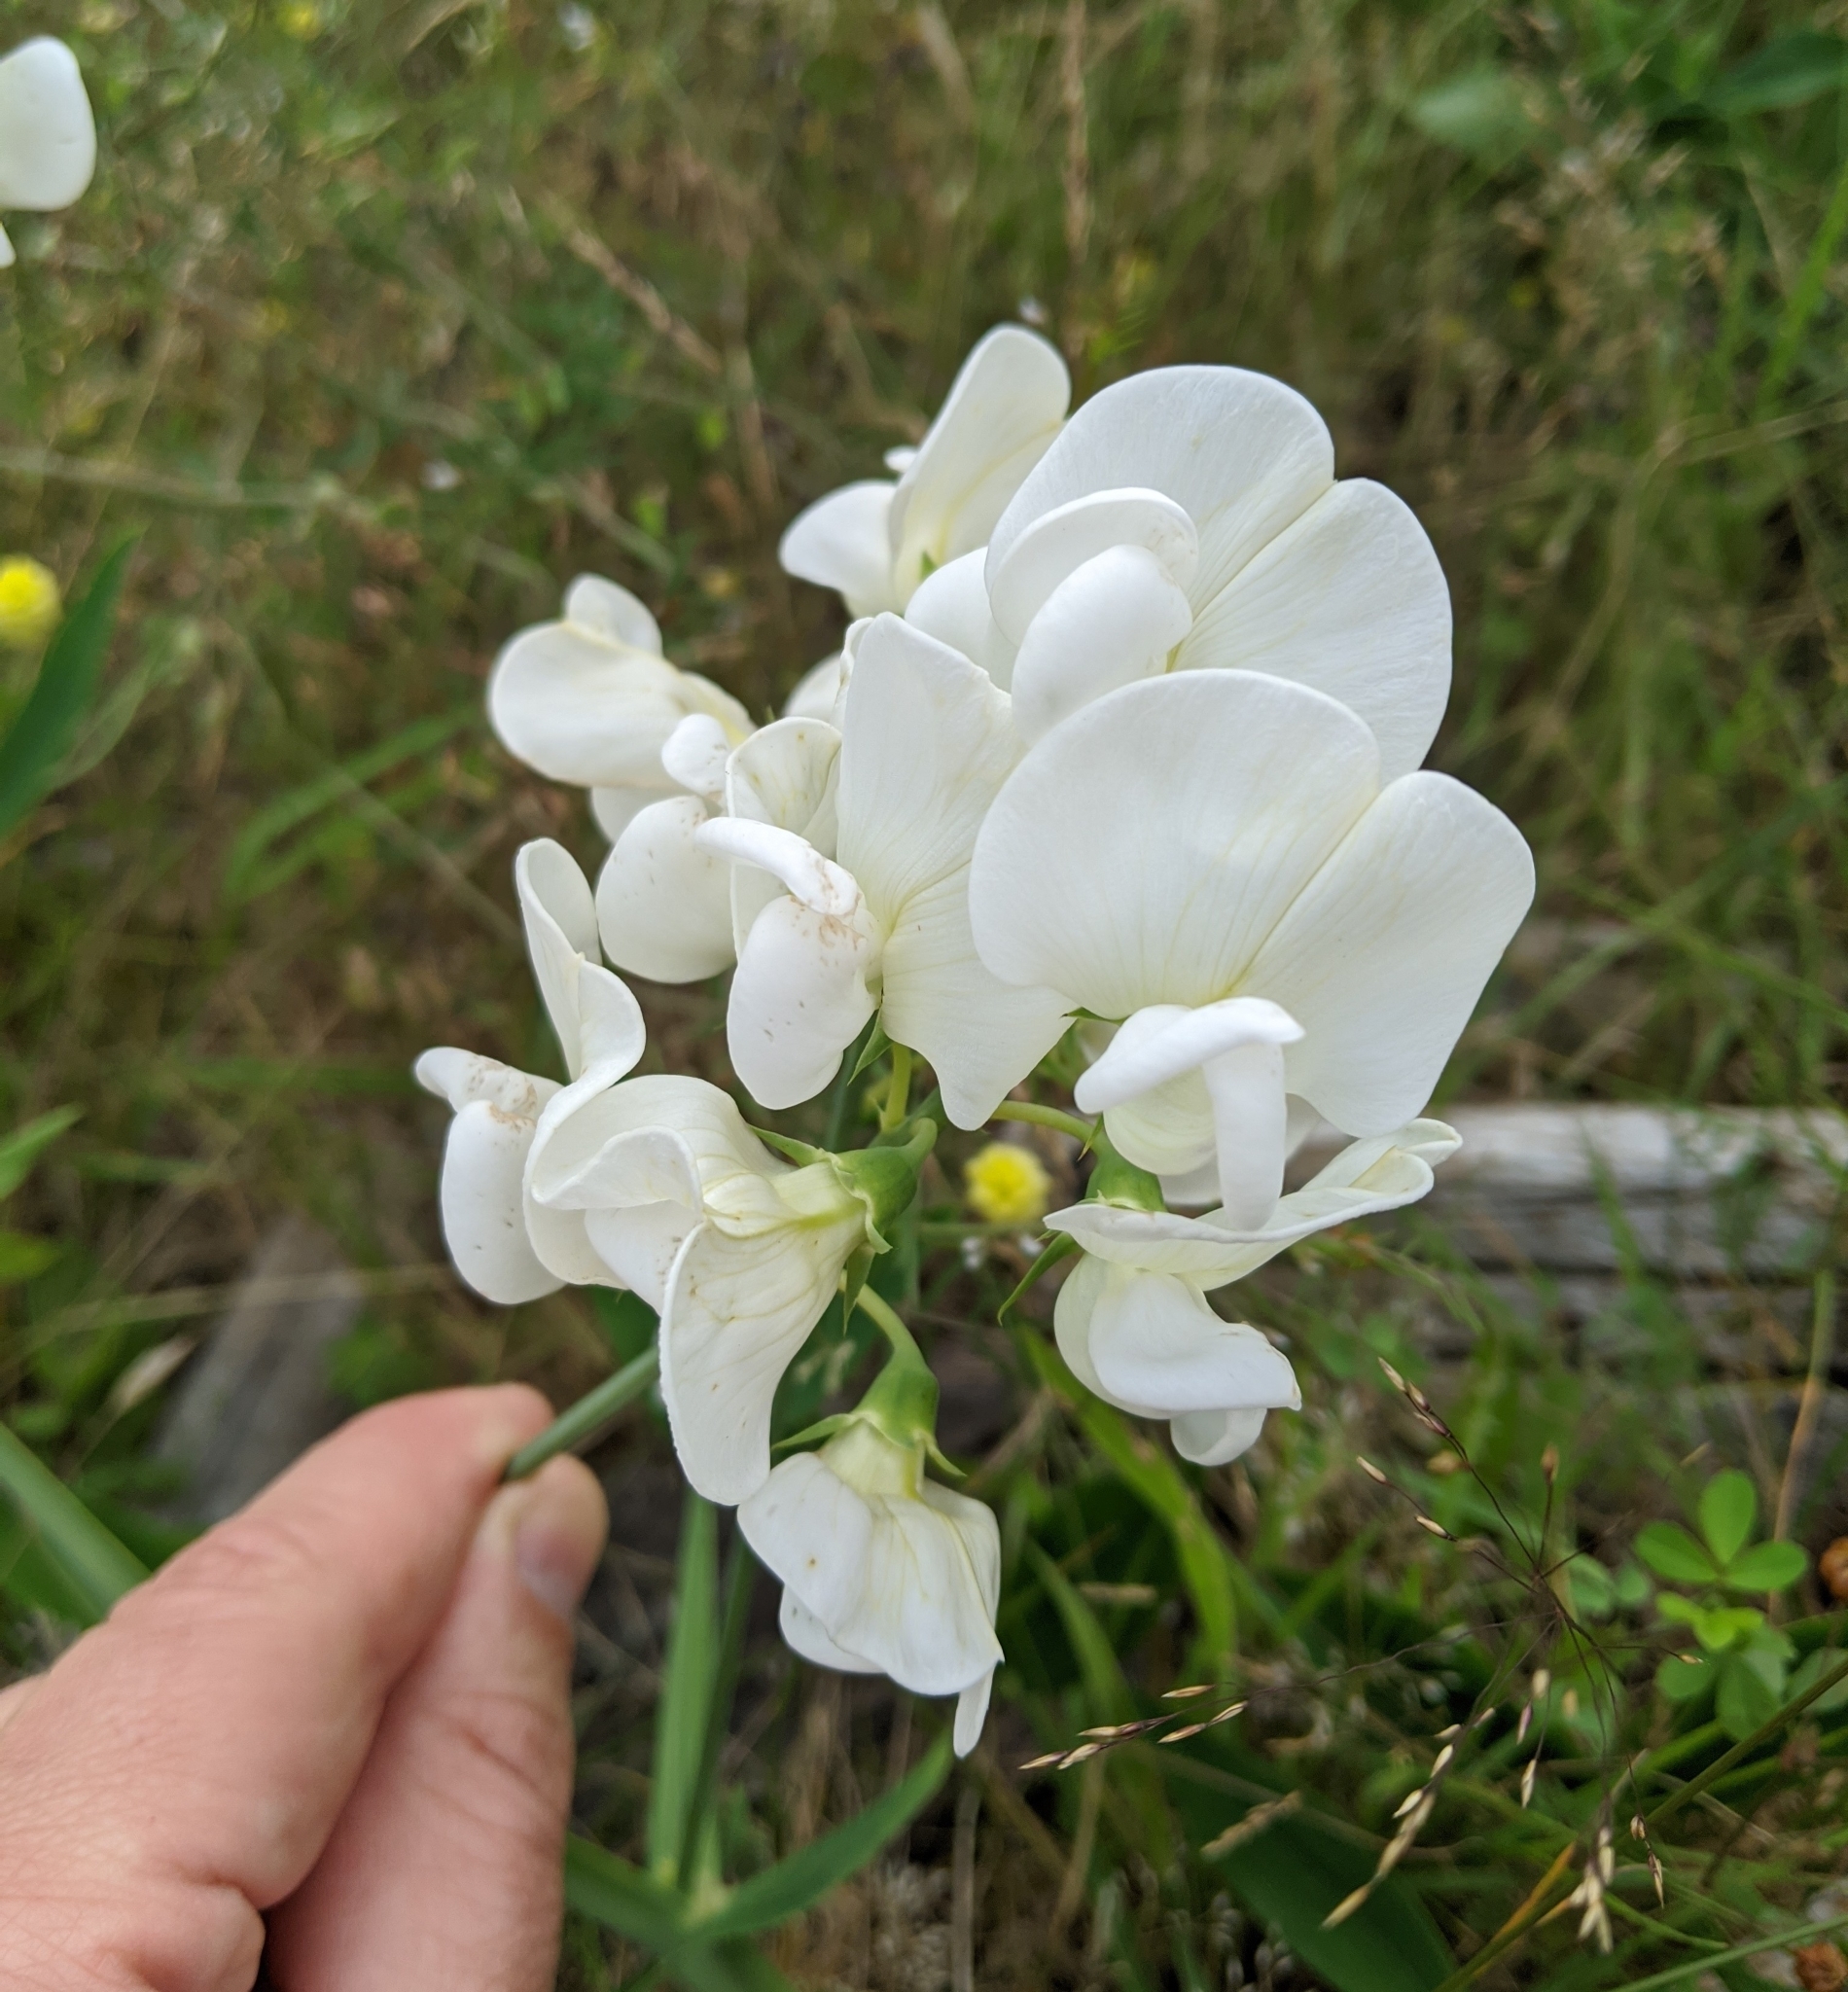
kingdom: Plantae
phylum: Tracheophyta
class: Magnoliopsida
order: Fabales
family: Fabaceae
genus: Lathyrus
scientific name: Lathyrus latifolius
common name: Perennial pea
